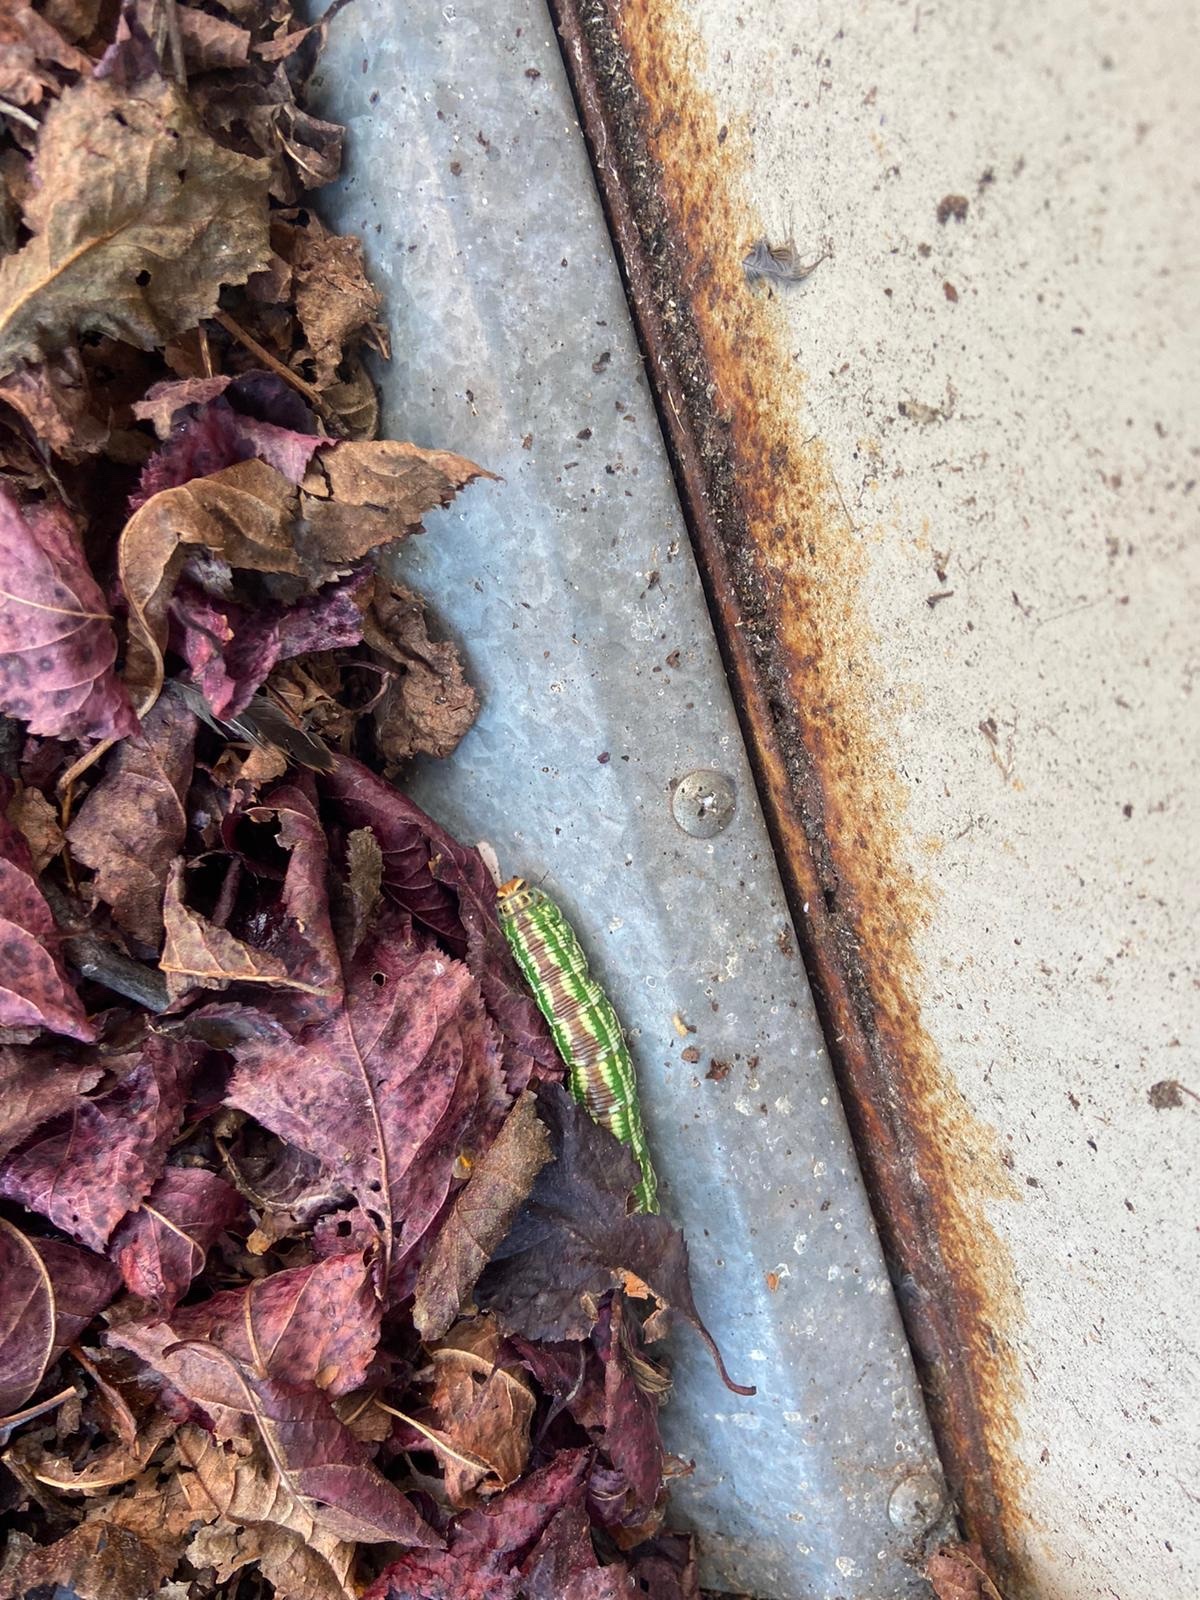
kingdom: Animalia
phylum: Arthropoda
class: Insecta
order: Lepidoptera
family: Sphingidae
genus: Sphinx
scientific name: Sphinx pinastri
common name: Pine hawk-moth
